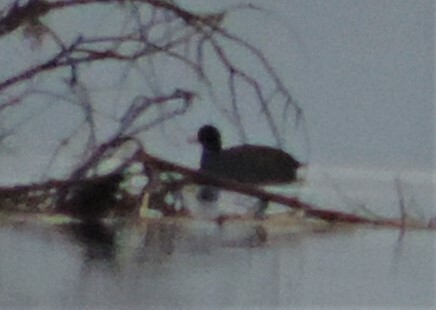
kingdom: Animalia
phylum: Chordata
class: Aves
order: Gruiformes
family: Rallidae
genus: Fulica
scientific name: Fulica americana
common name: American coot
